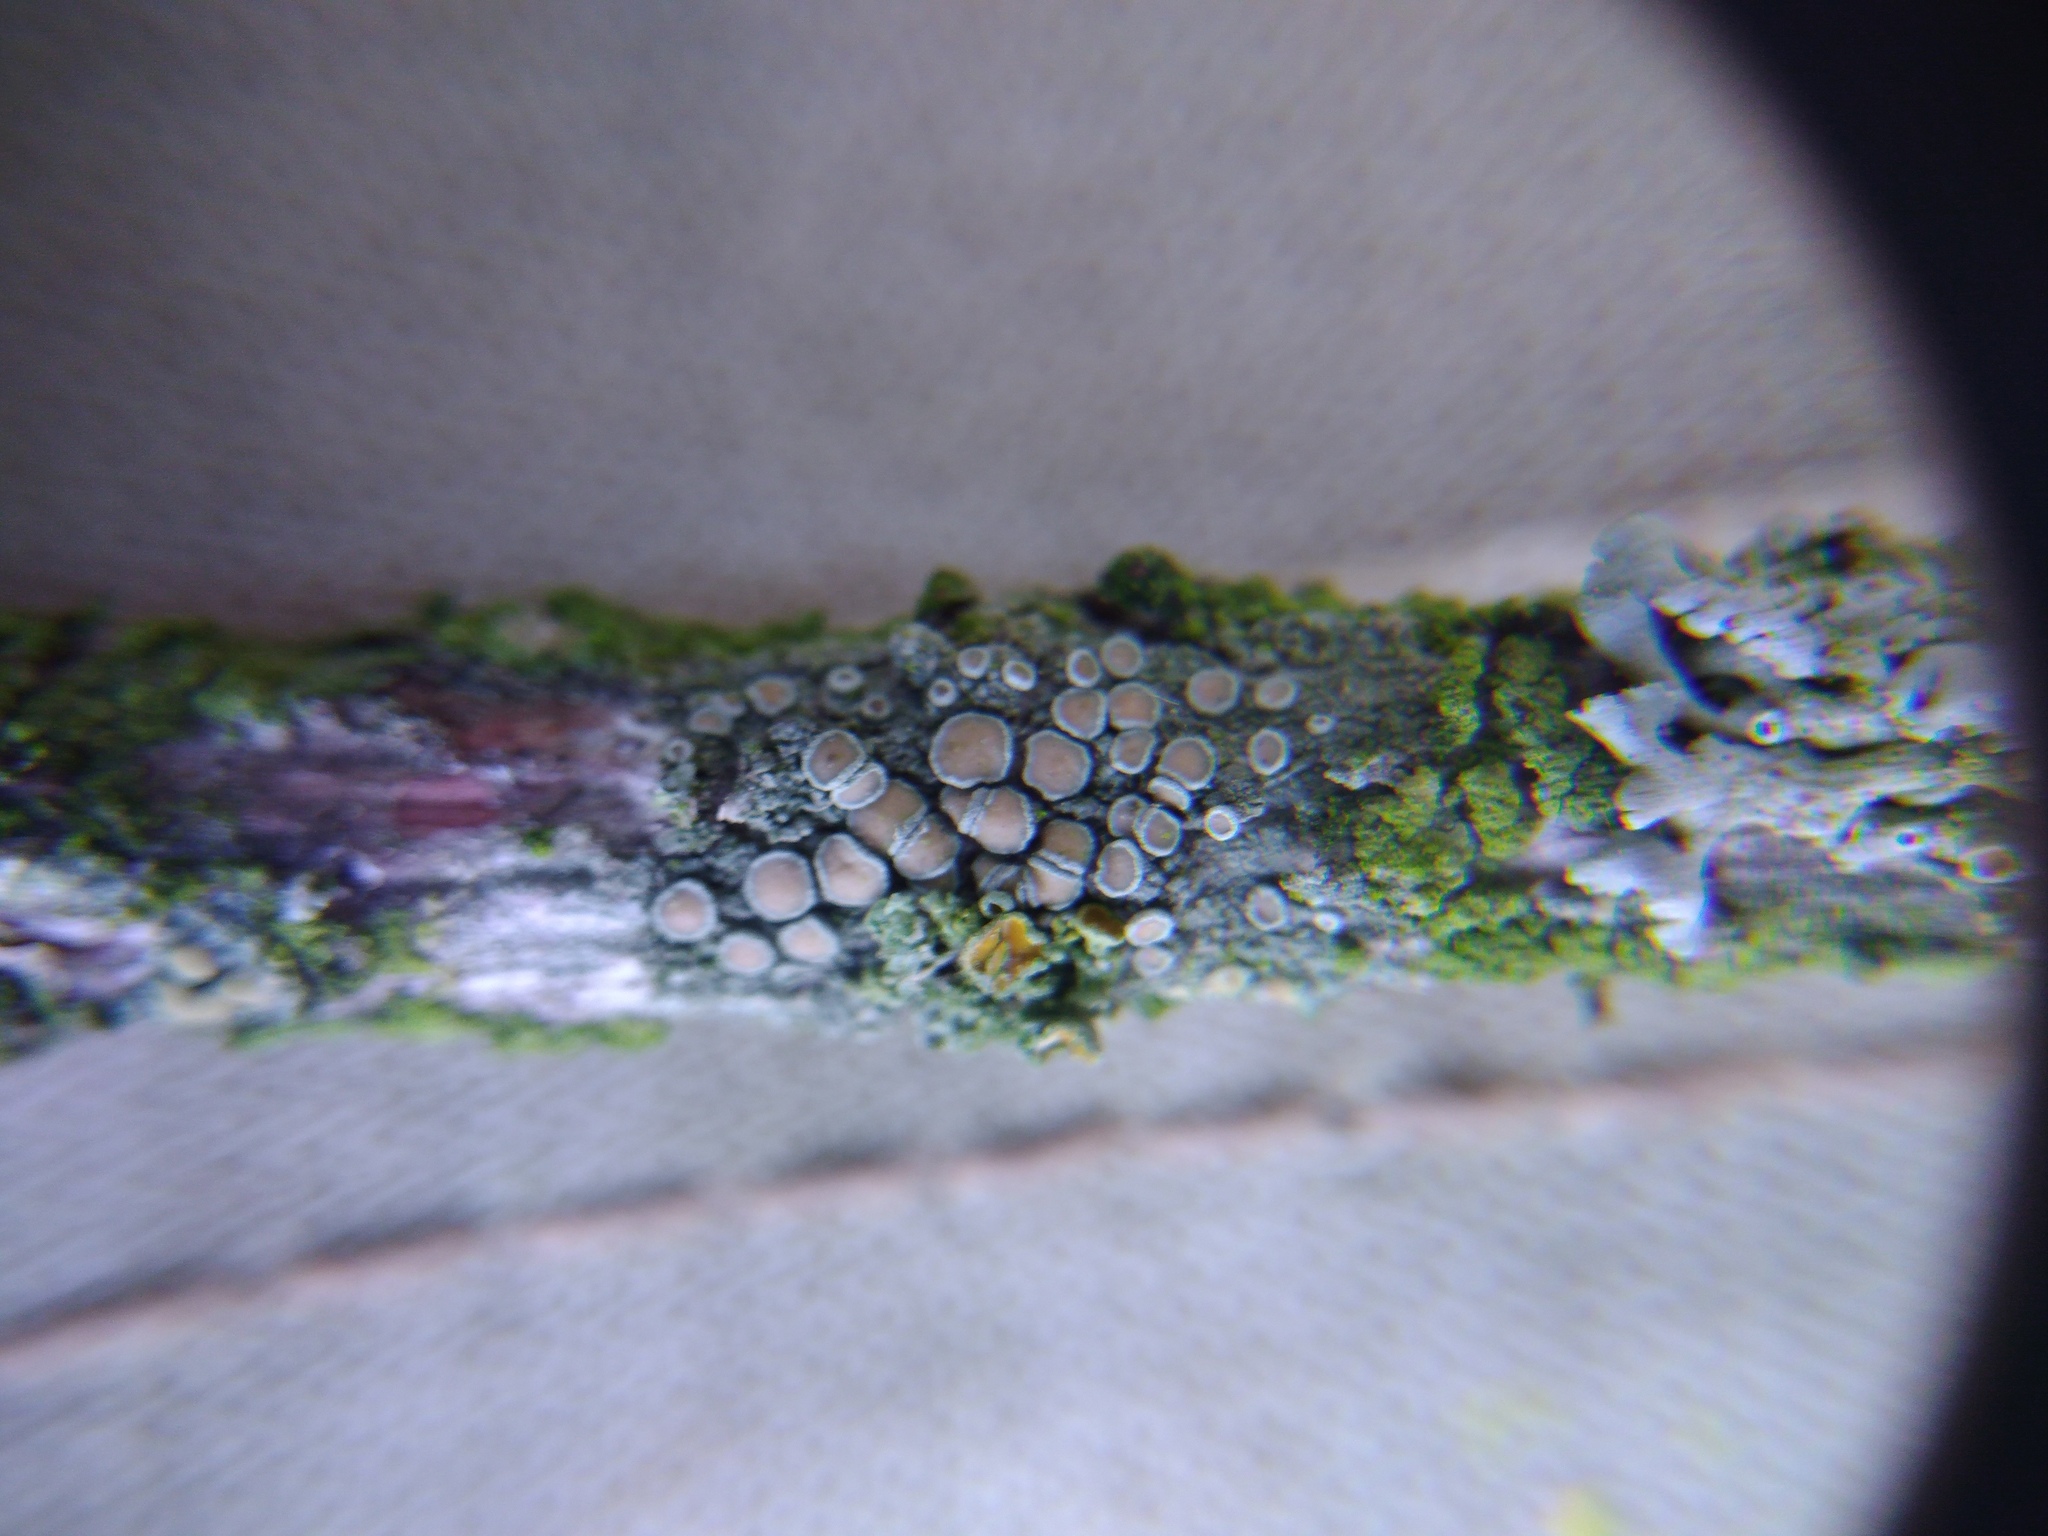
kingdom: Fungi
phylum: Ascomycota
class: Lecanoromycetes
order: Lecanorales
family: Lecanoraceae
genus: Lecanora
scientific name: Lecanora chlarotera
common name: Brown rim-lichen
